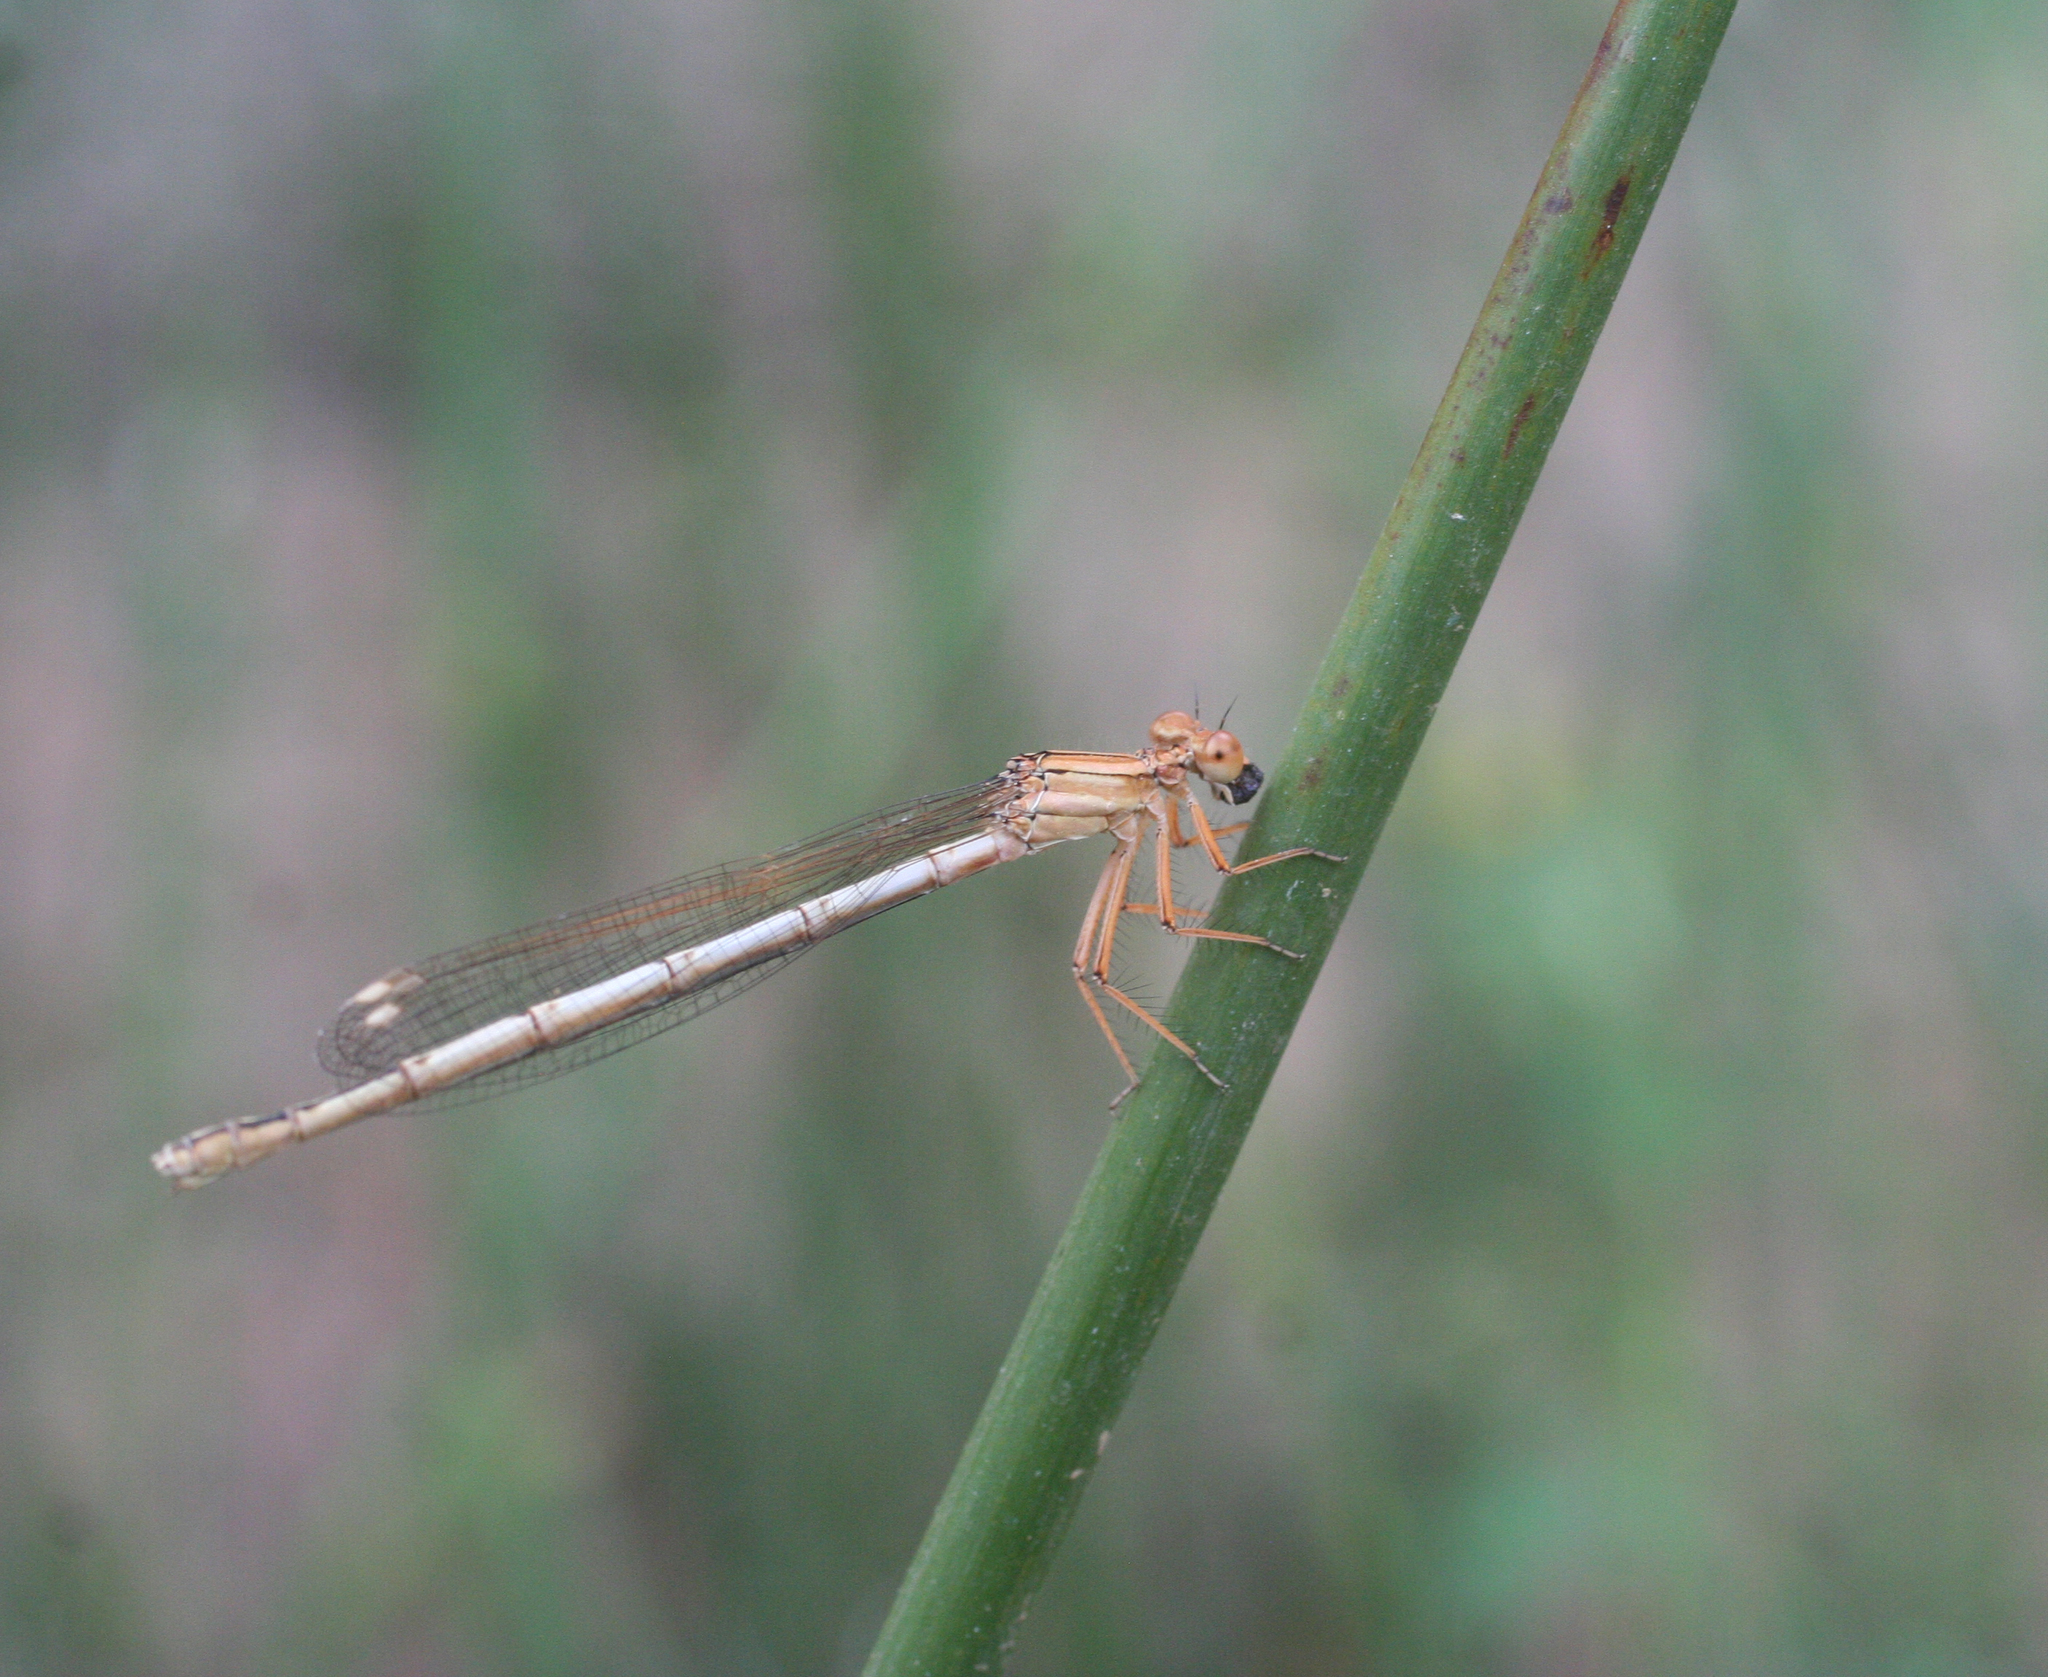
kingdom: Animalia
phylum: Arthropoda
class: Insecta
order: Odonata
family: Platycnemididae
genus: Platycnemis
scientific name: Platycnemis subdilatata
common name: Barbary featherleg
